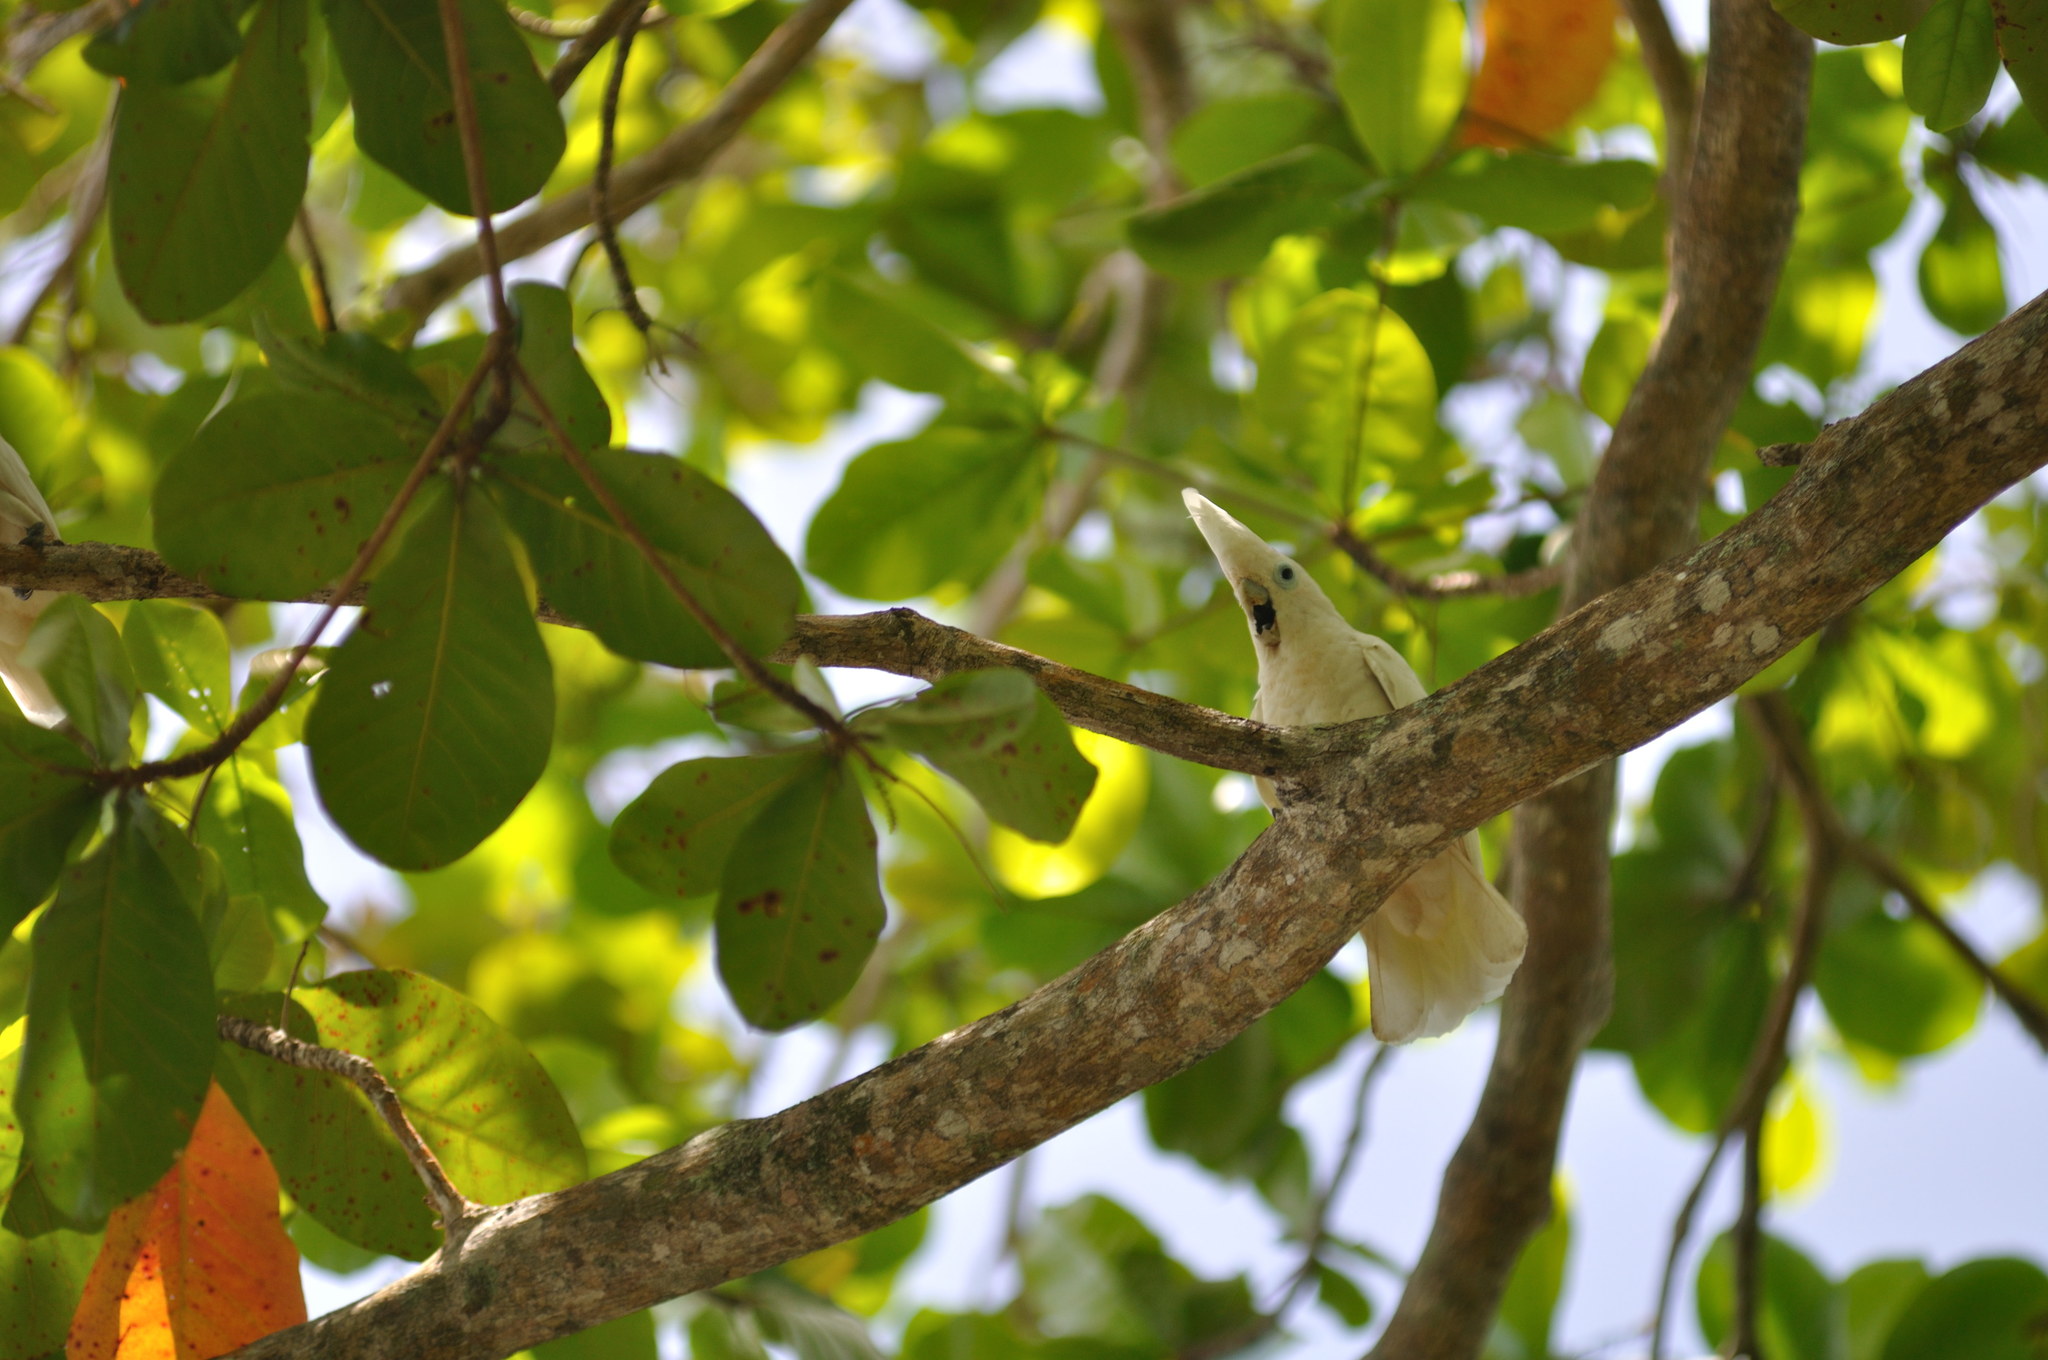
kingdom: Animalia
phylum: Chordata
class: Aves
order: Psittaciformes
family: Psittacidae
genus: Cacatua
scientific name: Cacatua ducorpsii
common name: Broad-crested corella
